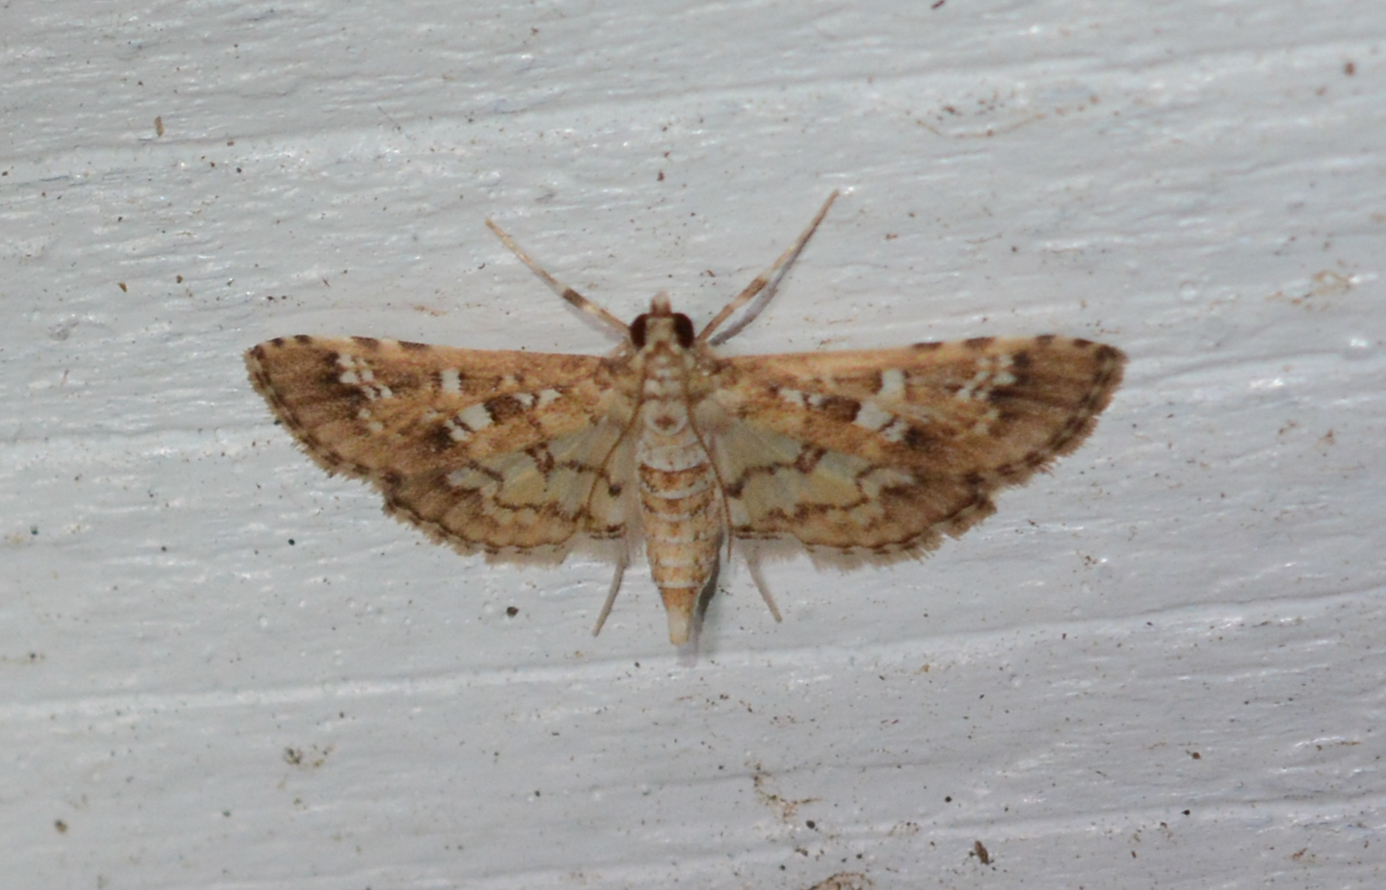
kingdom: Animalia
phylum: Arthropoda
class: Insecta
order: Lepidoptera
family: Crambidae
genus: Samea
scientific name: Samea multiplicalis
